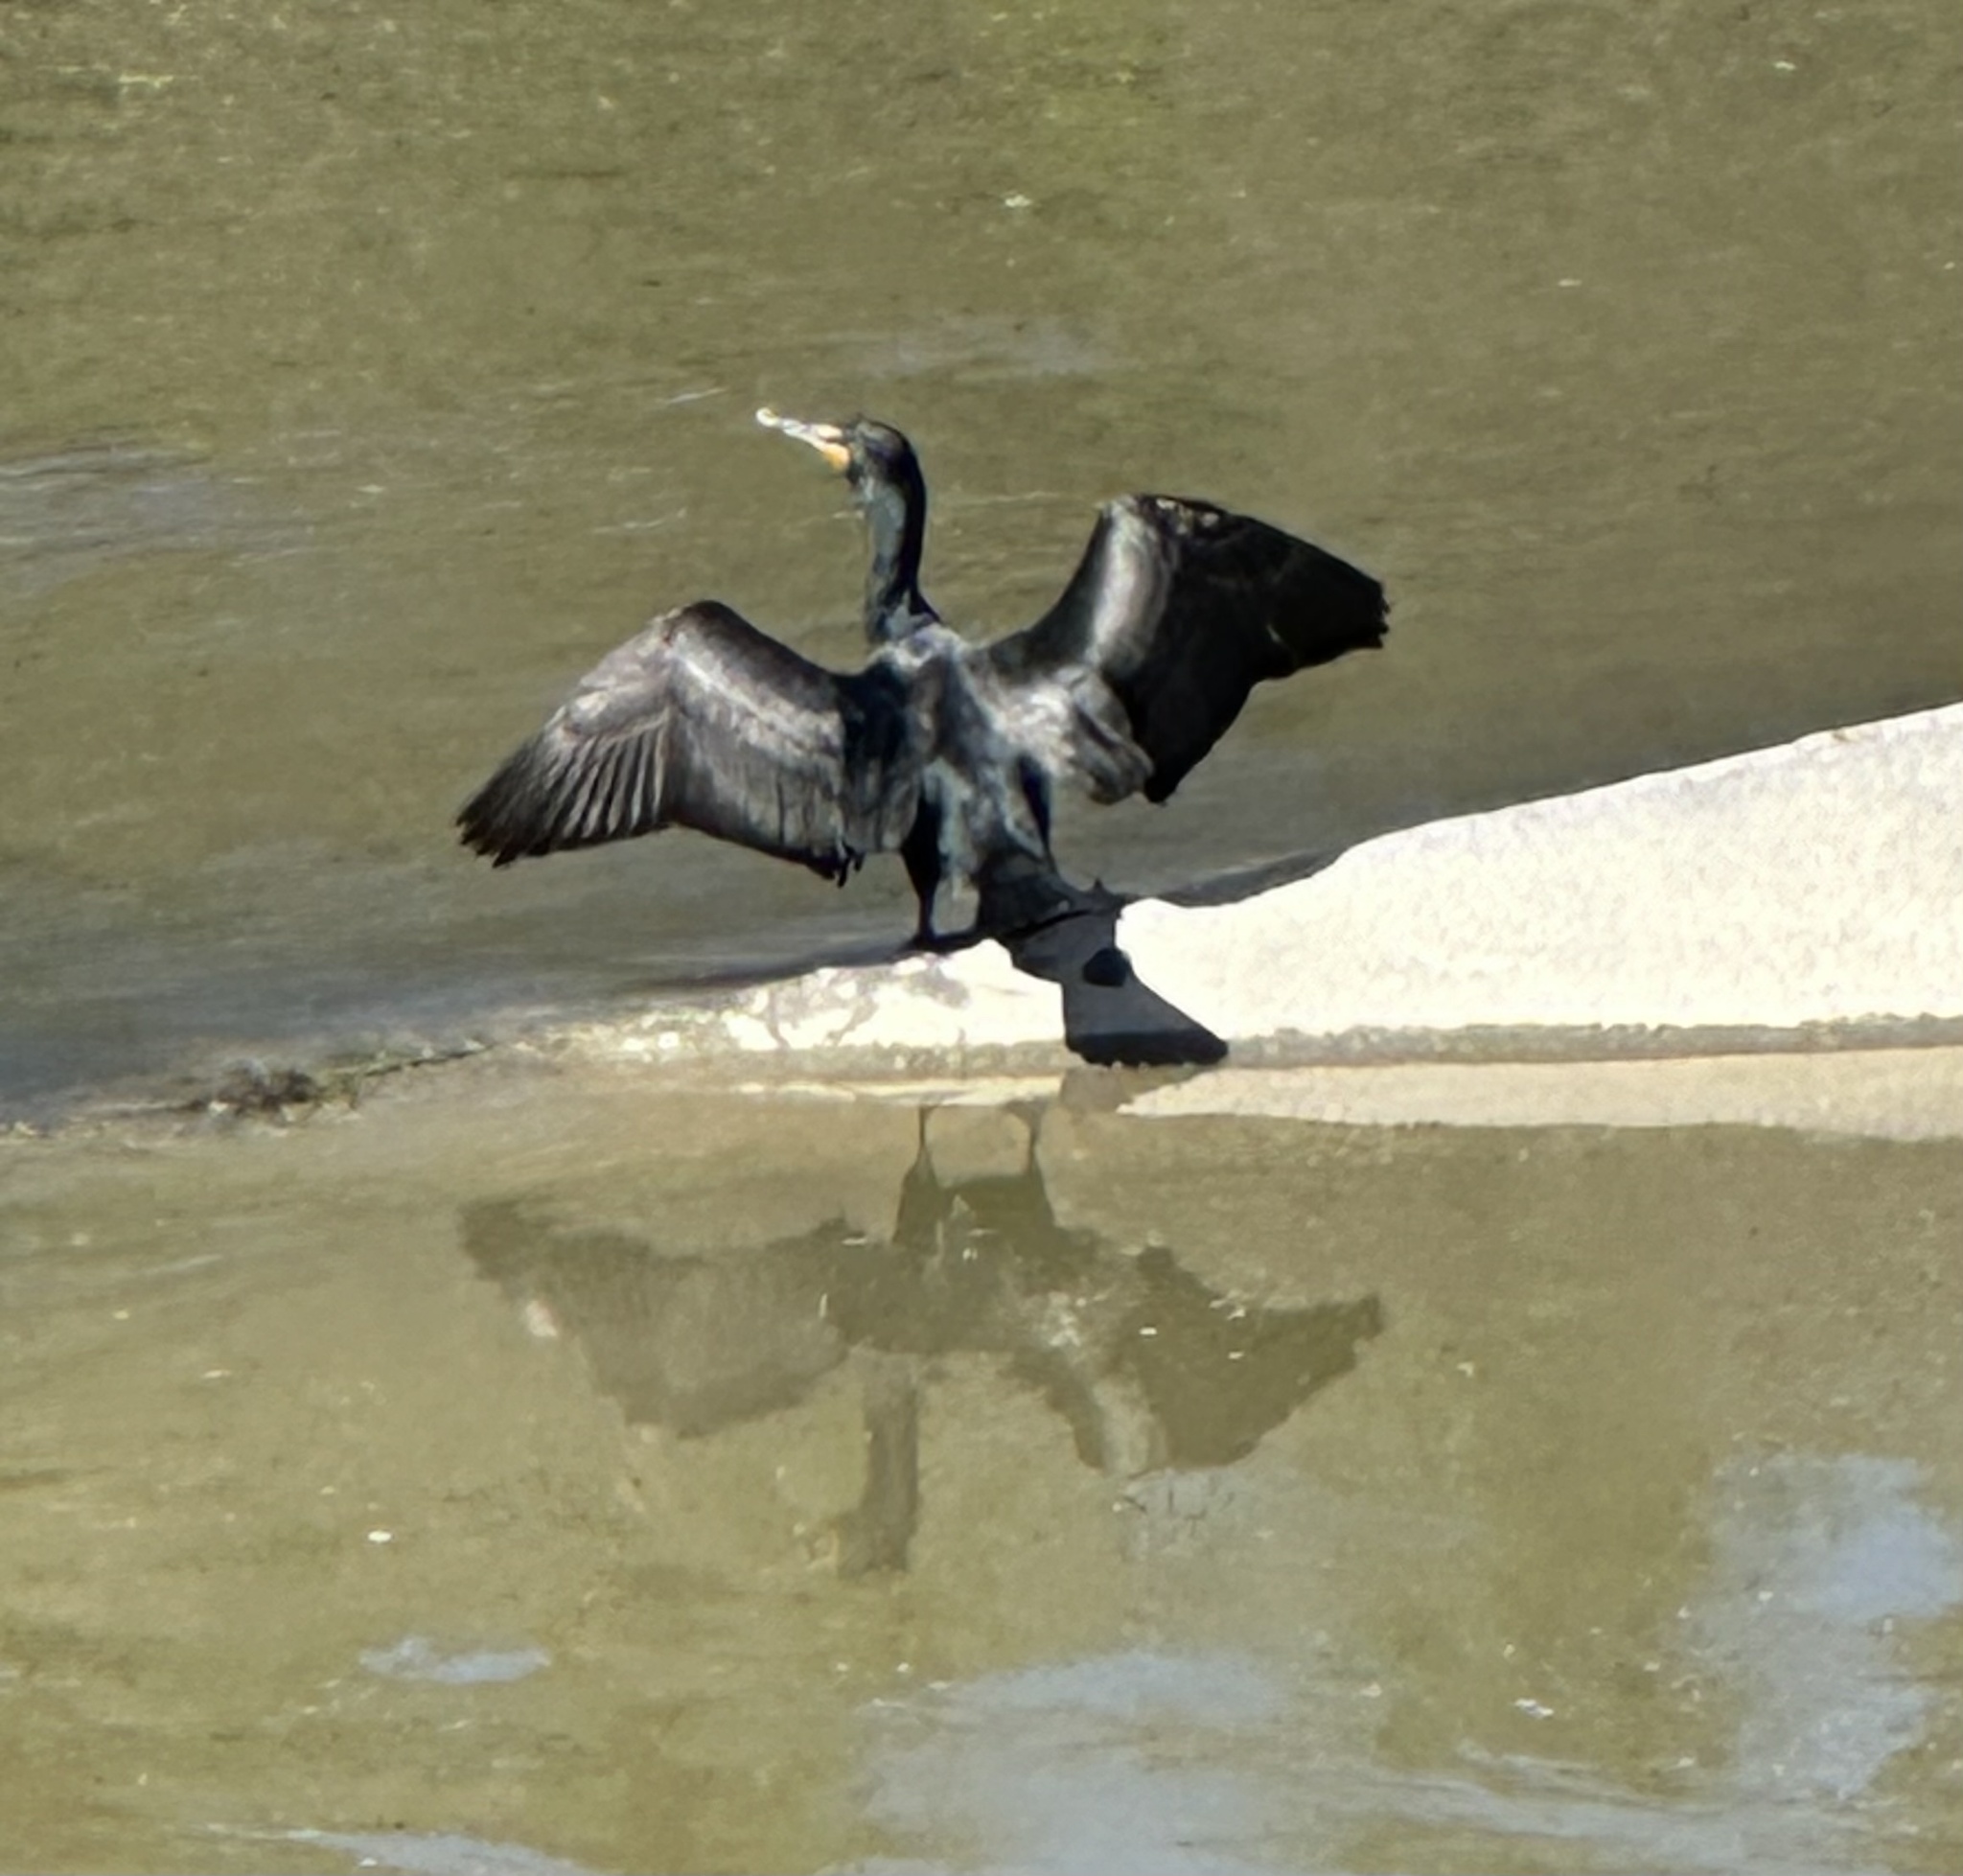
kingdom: Animalia
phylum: Chordata
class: Aves
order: Suliformes
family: Phalacrocoracidae
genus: Phalacrocorax
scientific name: Phalacrocorax auritus
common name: Double-crested cormorant
